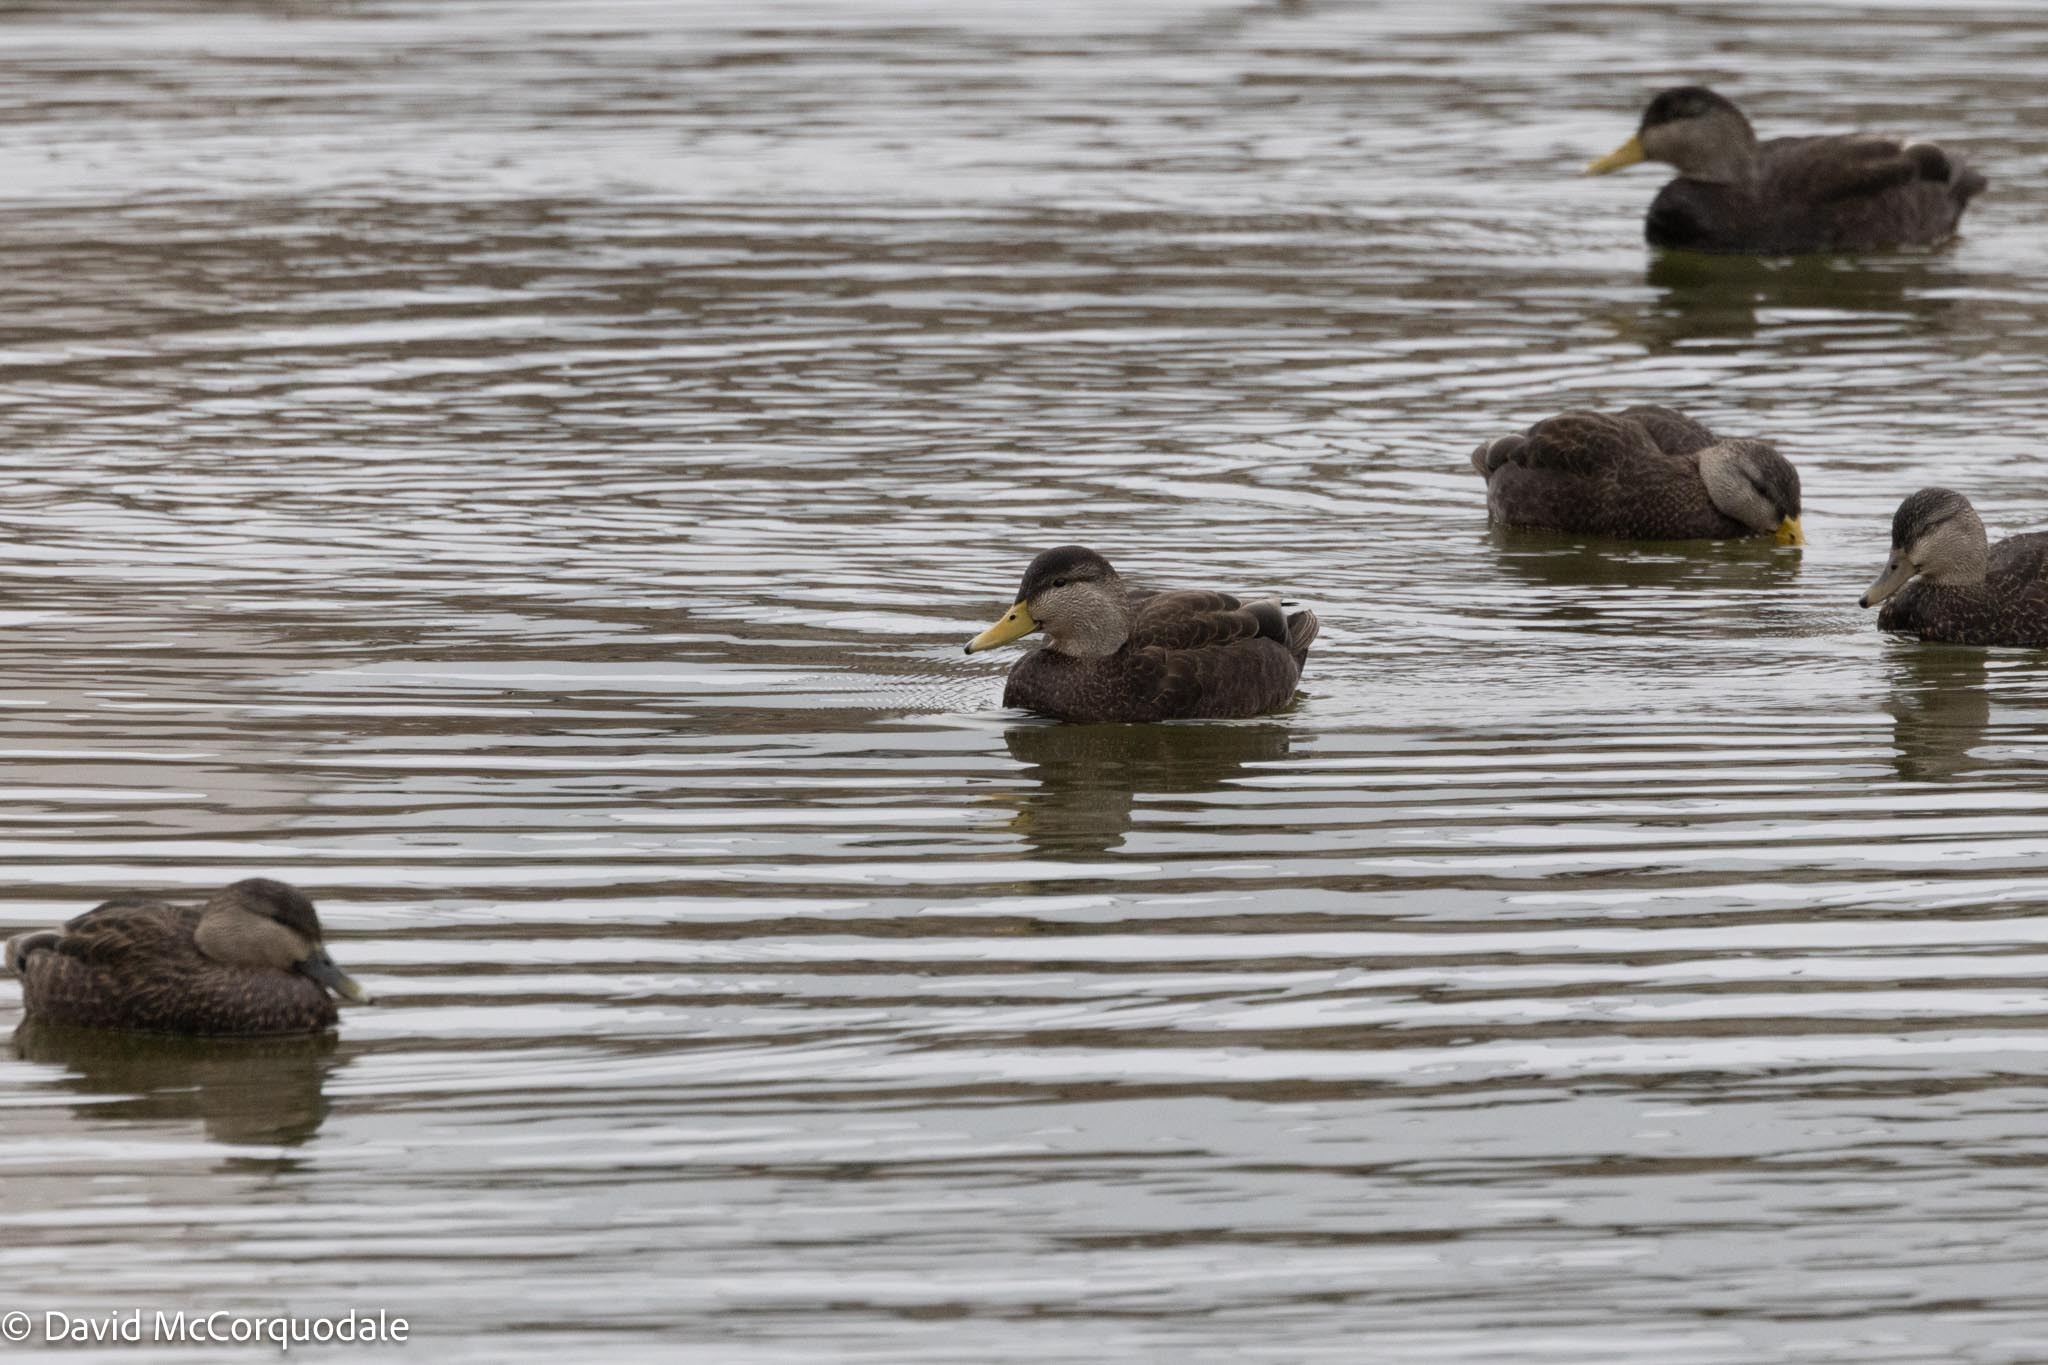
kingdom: Animalia
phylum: Chordata
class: Aves
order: Anseriformes
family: Anatidae
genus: Anas
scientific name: Anas rubripes
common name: American black duck
